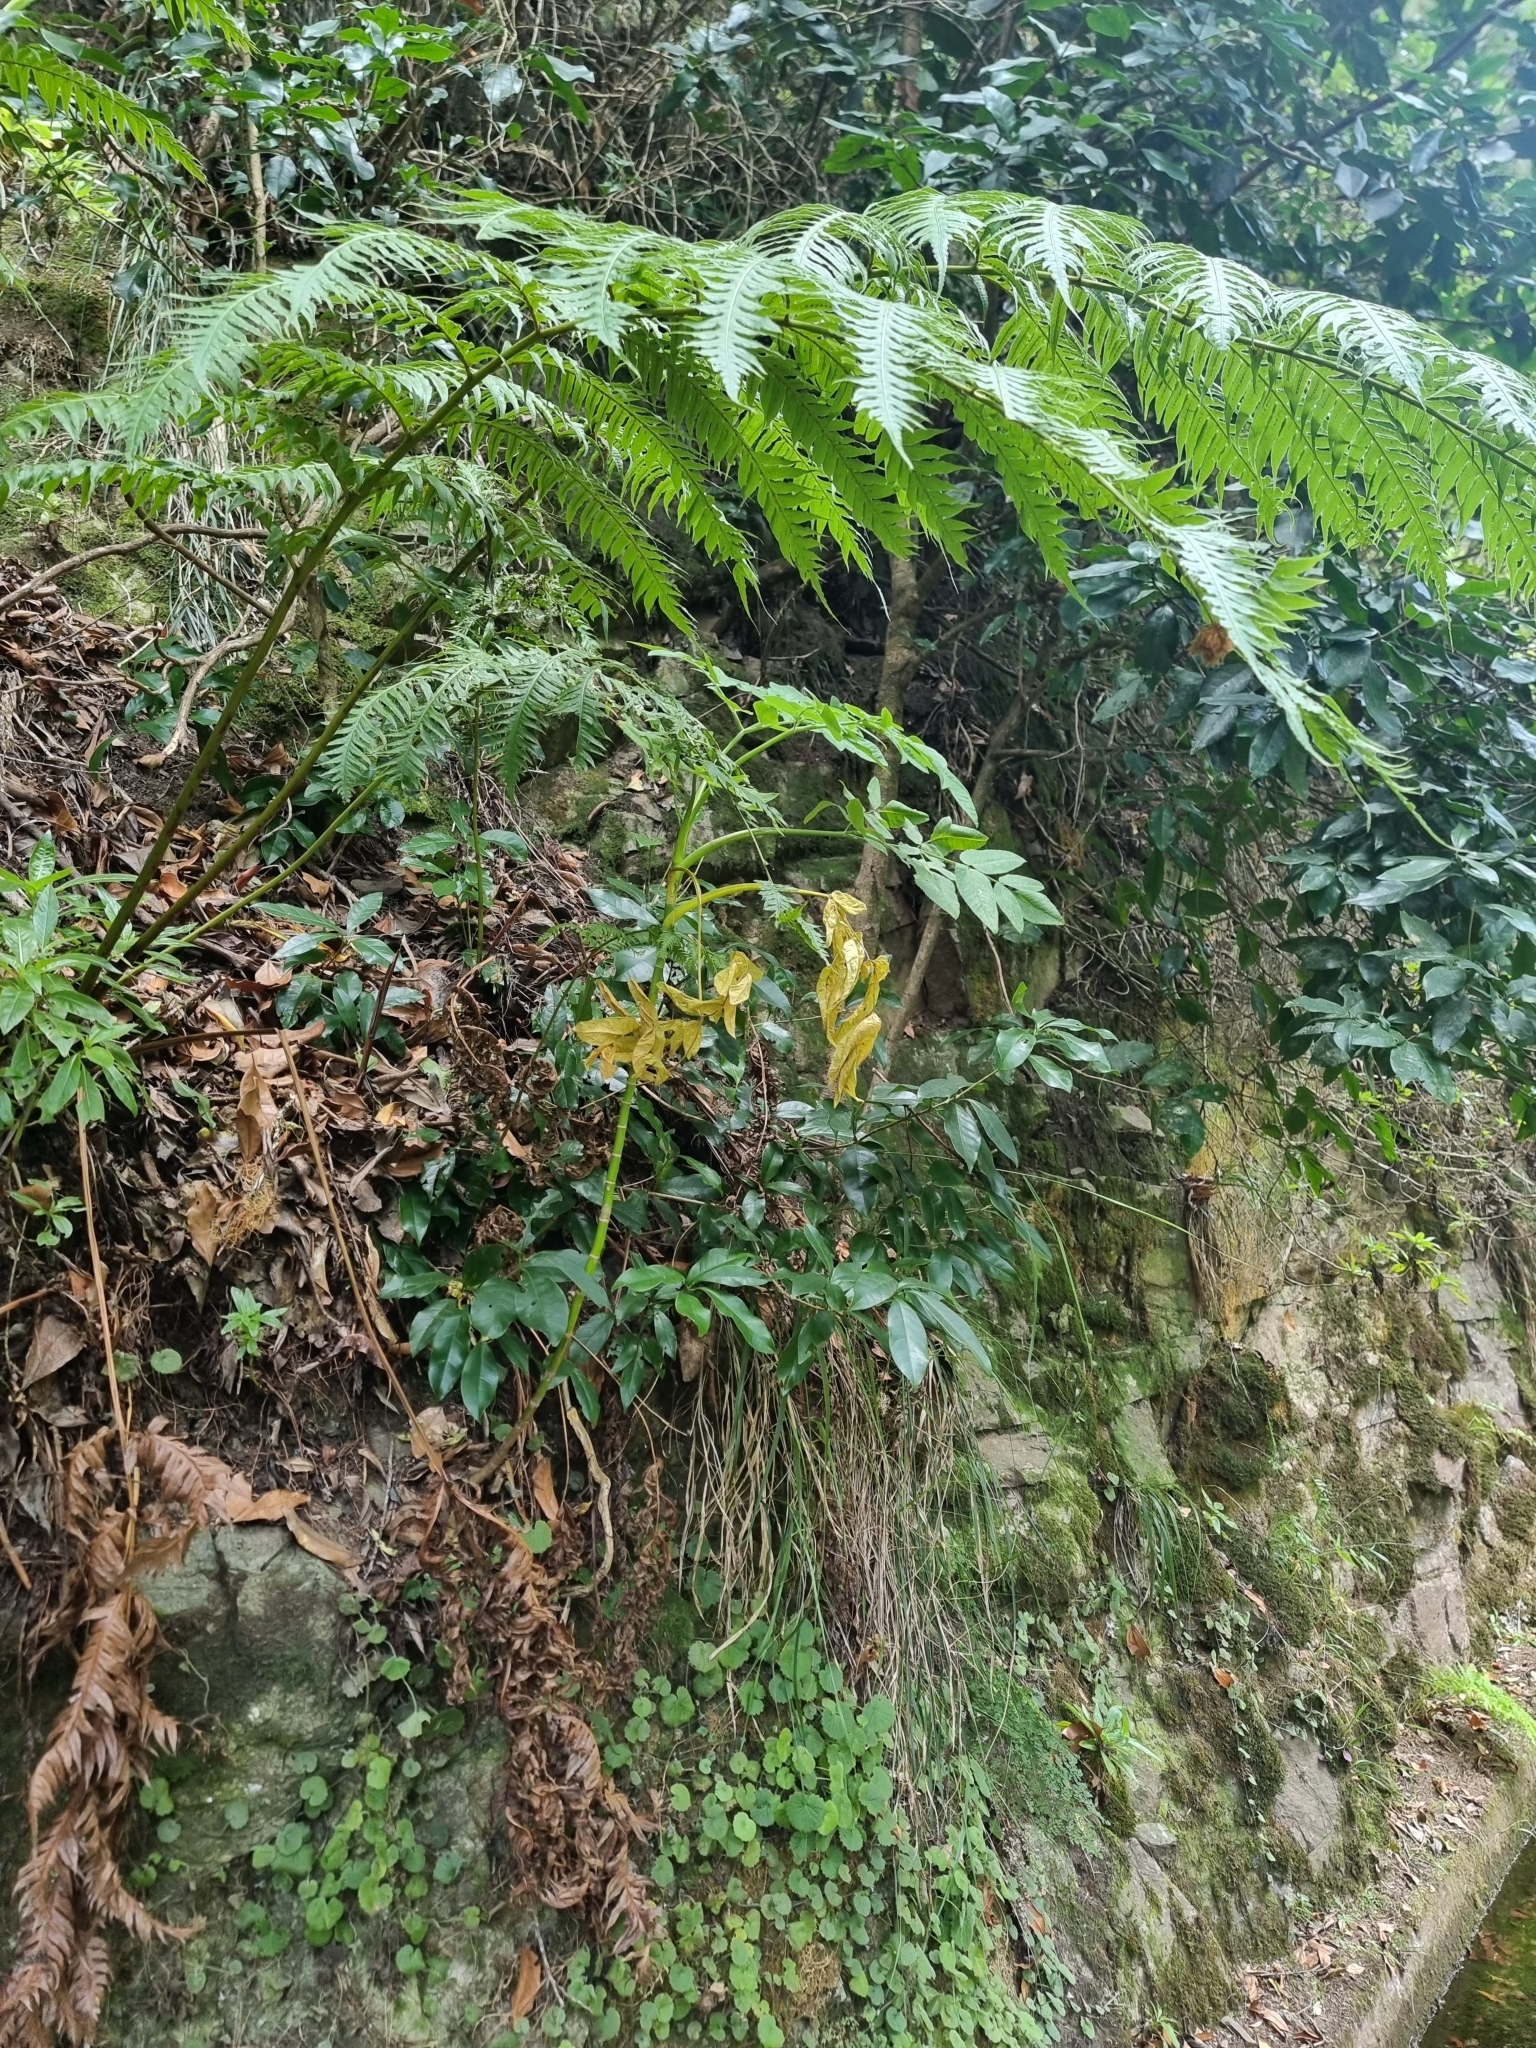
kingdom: Plantae
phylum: Tracheophyta
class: Magnoliopsida
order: Apiales
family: Apiaceae
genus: Daucus
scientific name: Daucus decipiens
